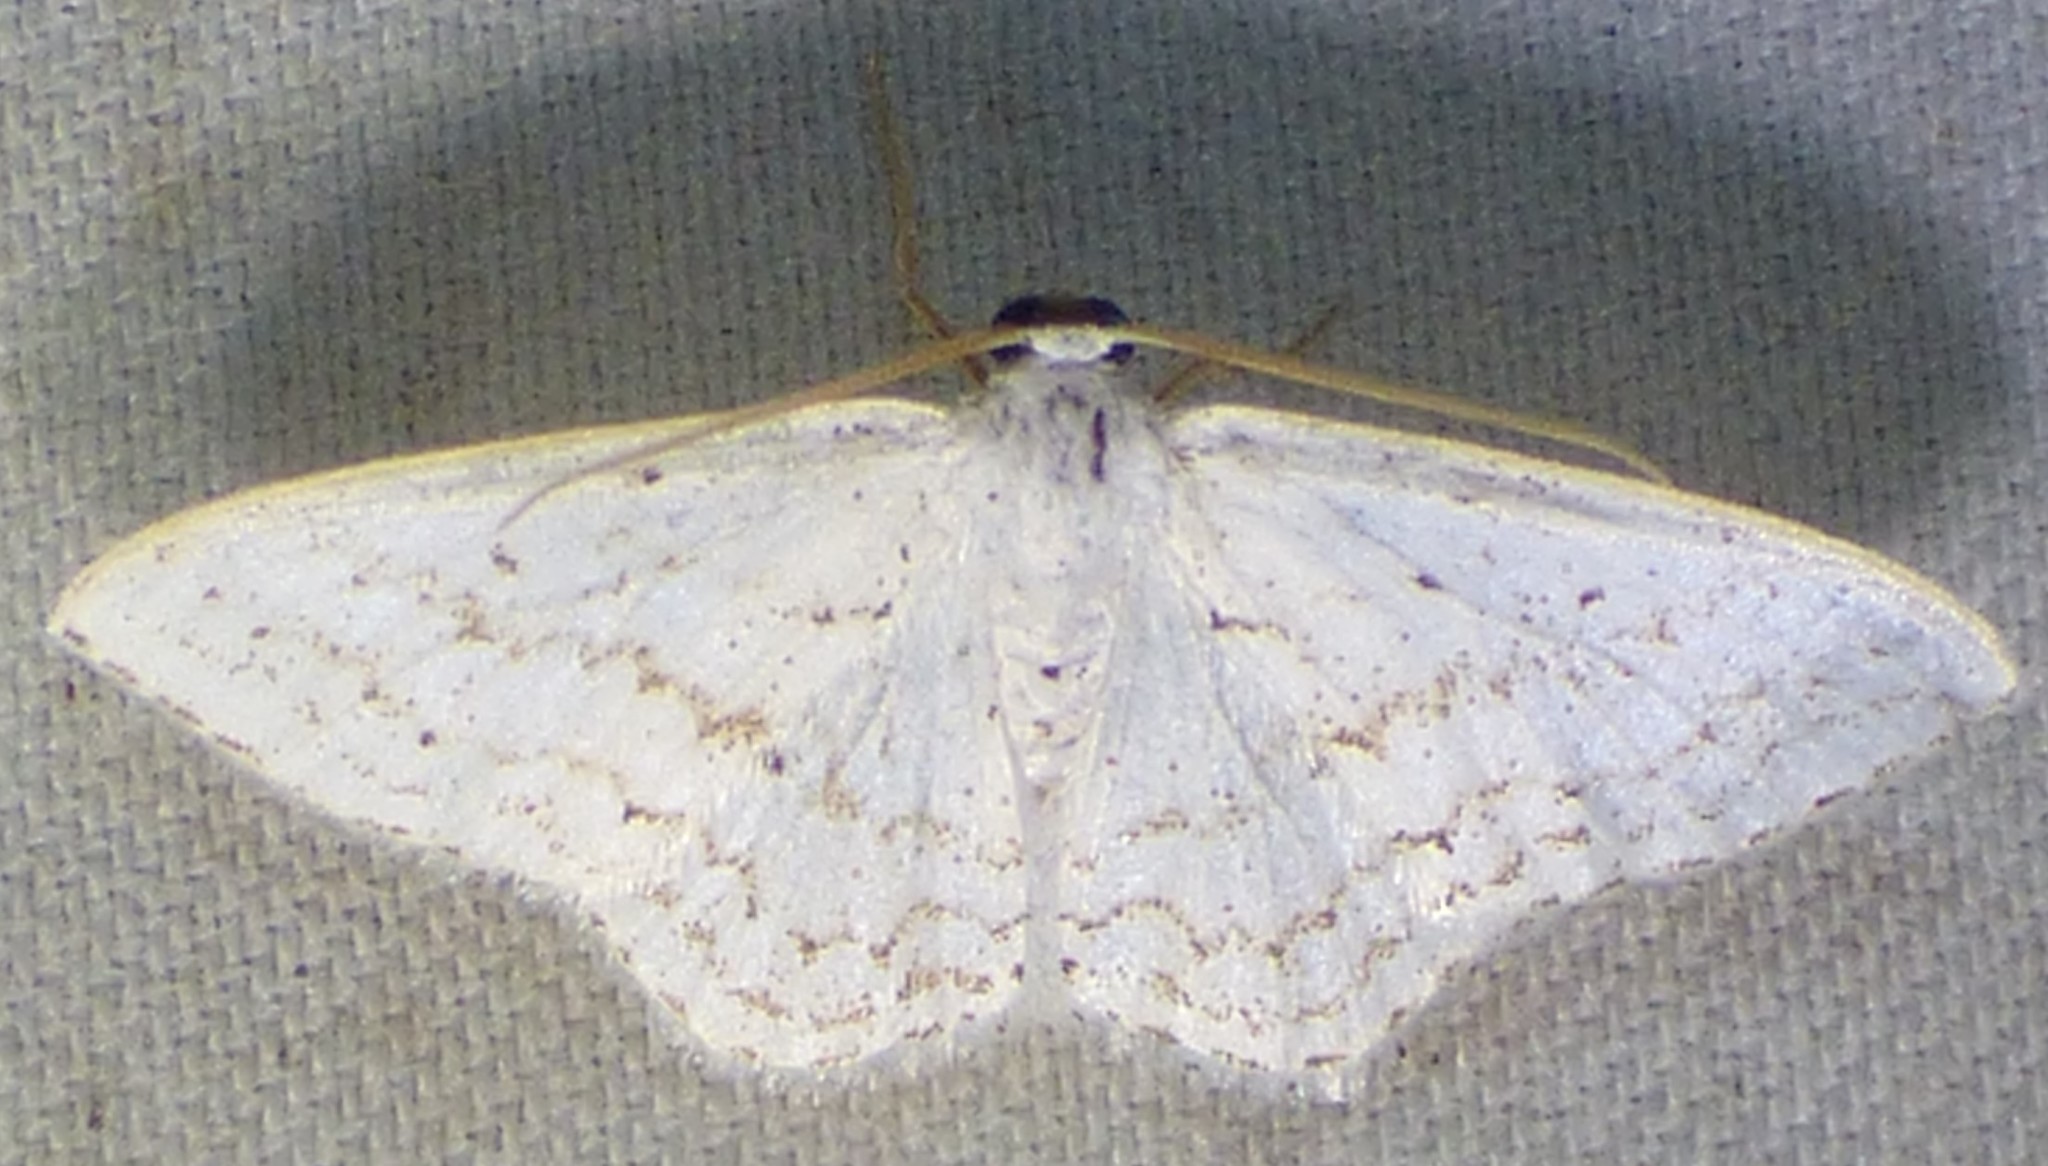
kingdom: Animalia
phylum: Arthropoda
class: Insecta
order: Lepidoptera
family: Geometridae
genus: Idaea
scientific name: Idaea tacturata
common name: Dot-lined wave
